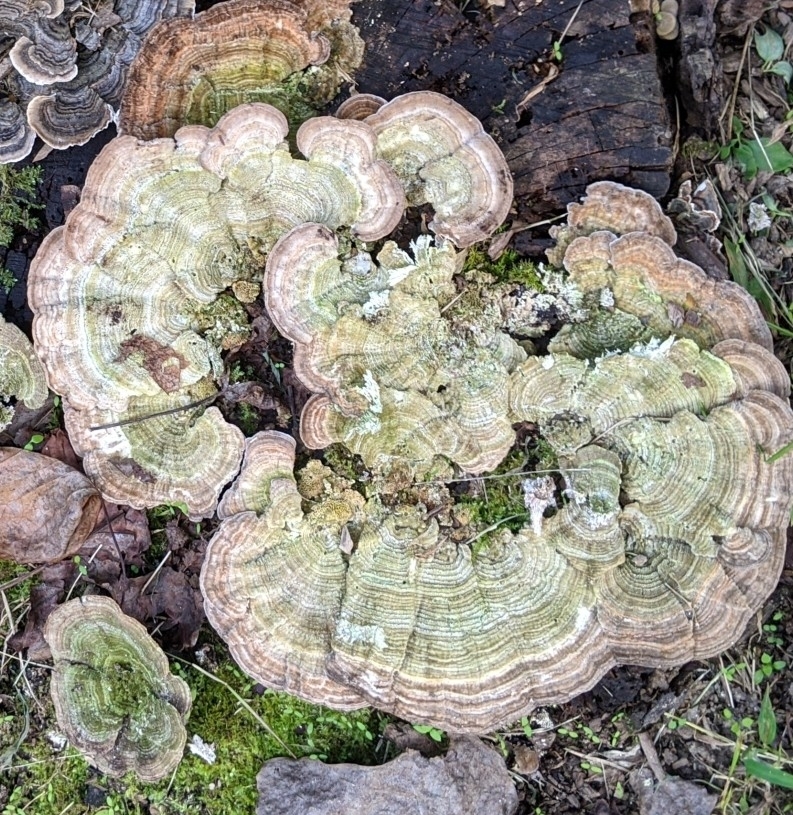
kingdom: Fungi
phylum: Basidiomycota
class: Agaricomycetes
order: Polyporales
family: Polyporaceae
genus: Lenzites
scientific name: Lenzites betulinus
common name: Birch mazegill
